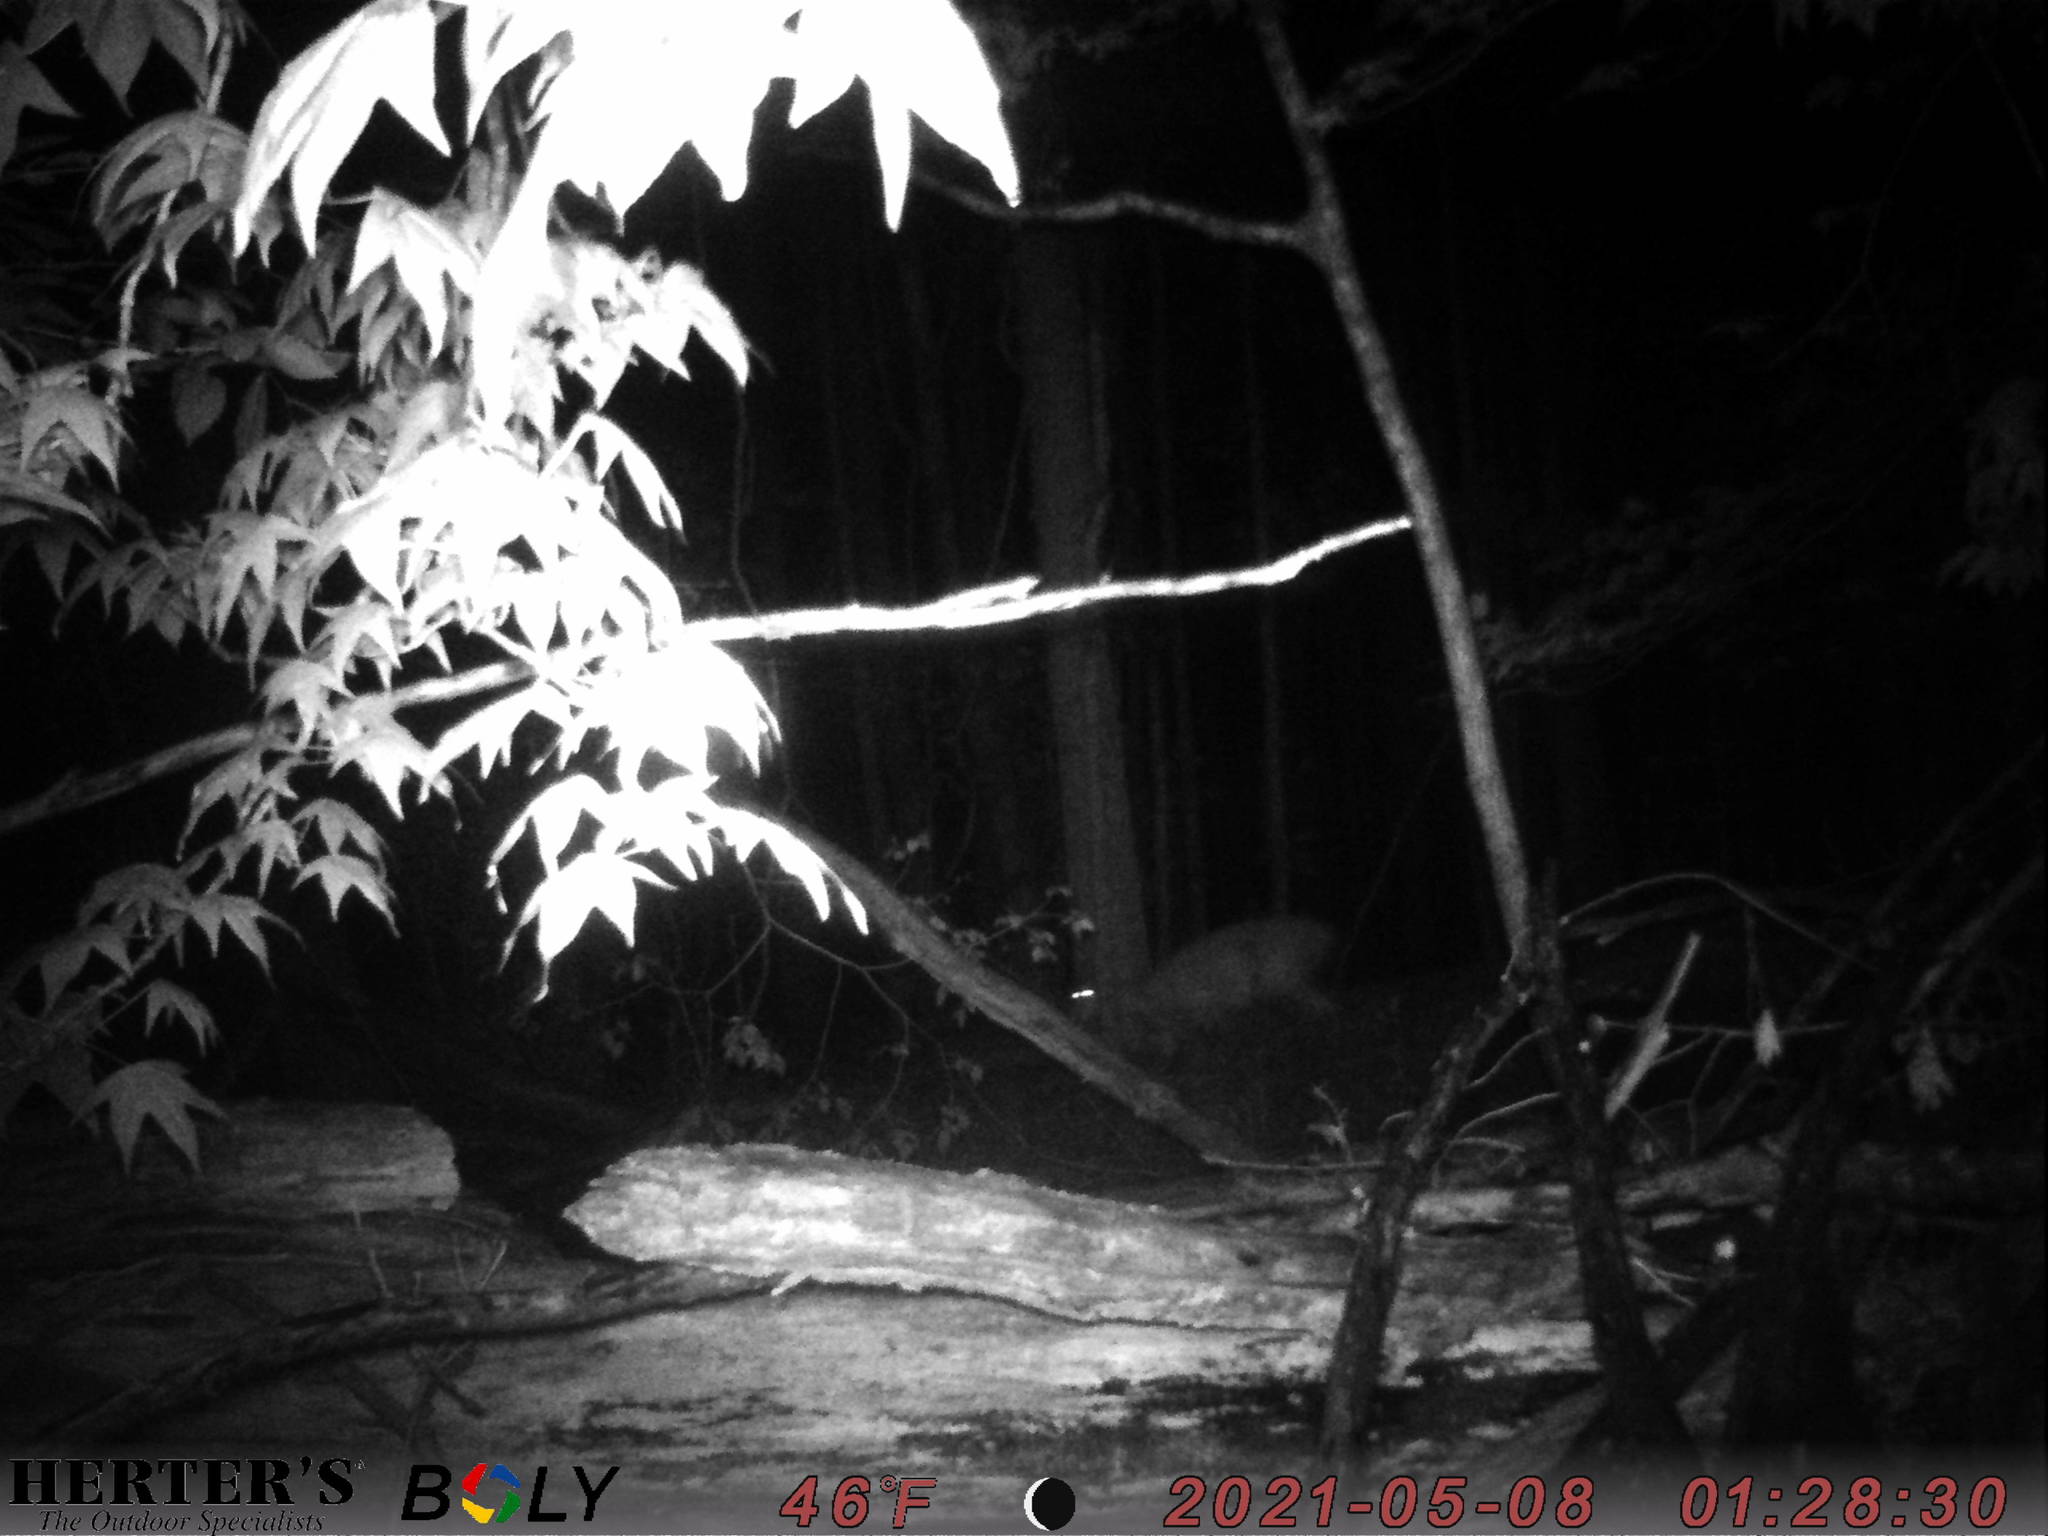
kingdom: Animalia
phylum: Chordata
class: Mammalia
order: Artiodactyla
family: Cervidae
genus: Odocoileus
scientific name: Odocoileus virginianus
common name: White-tailed deer
